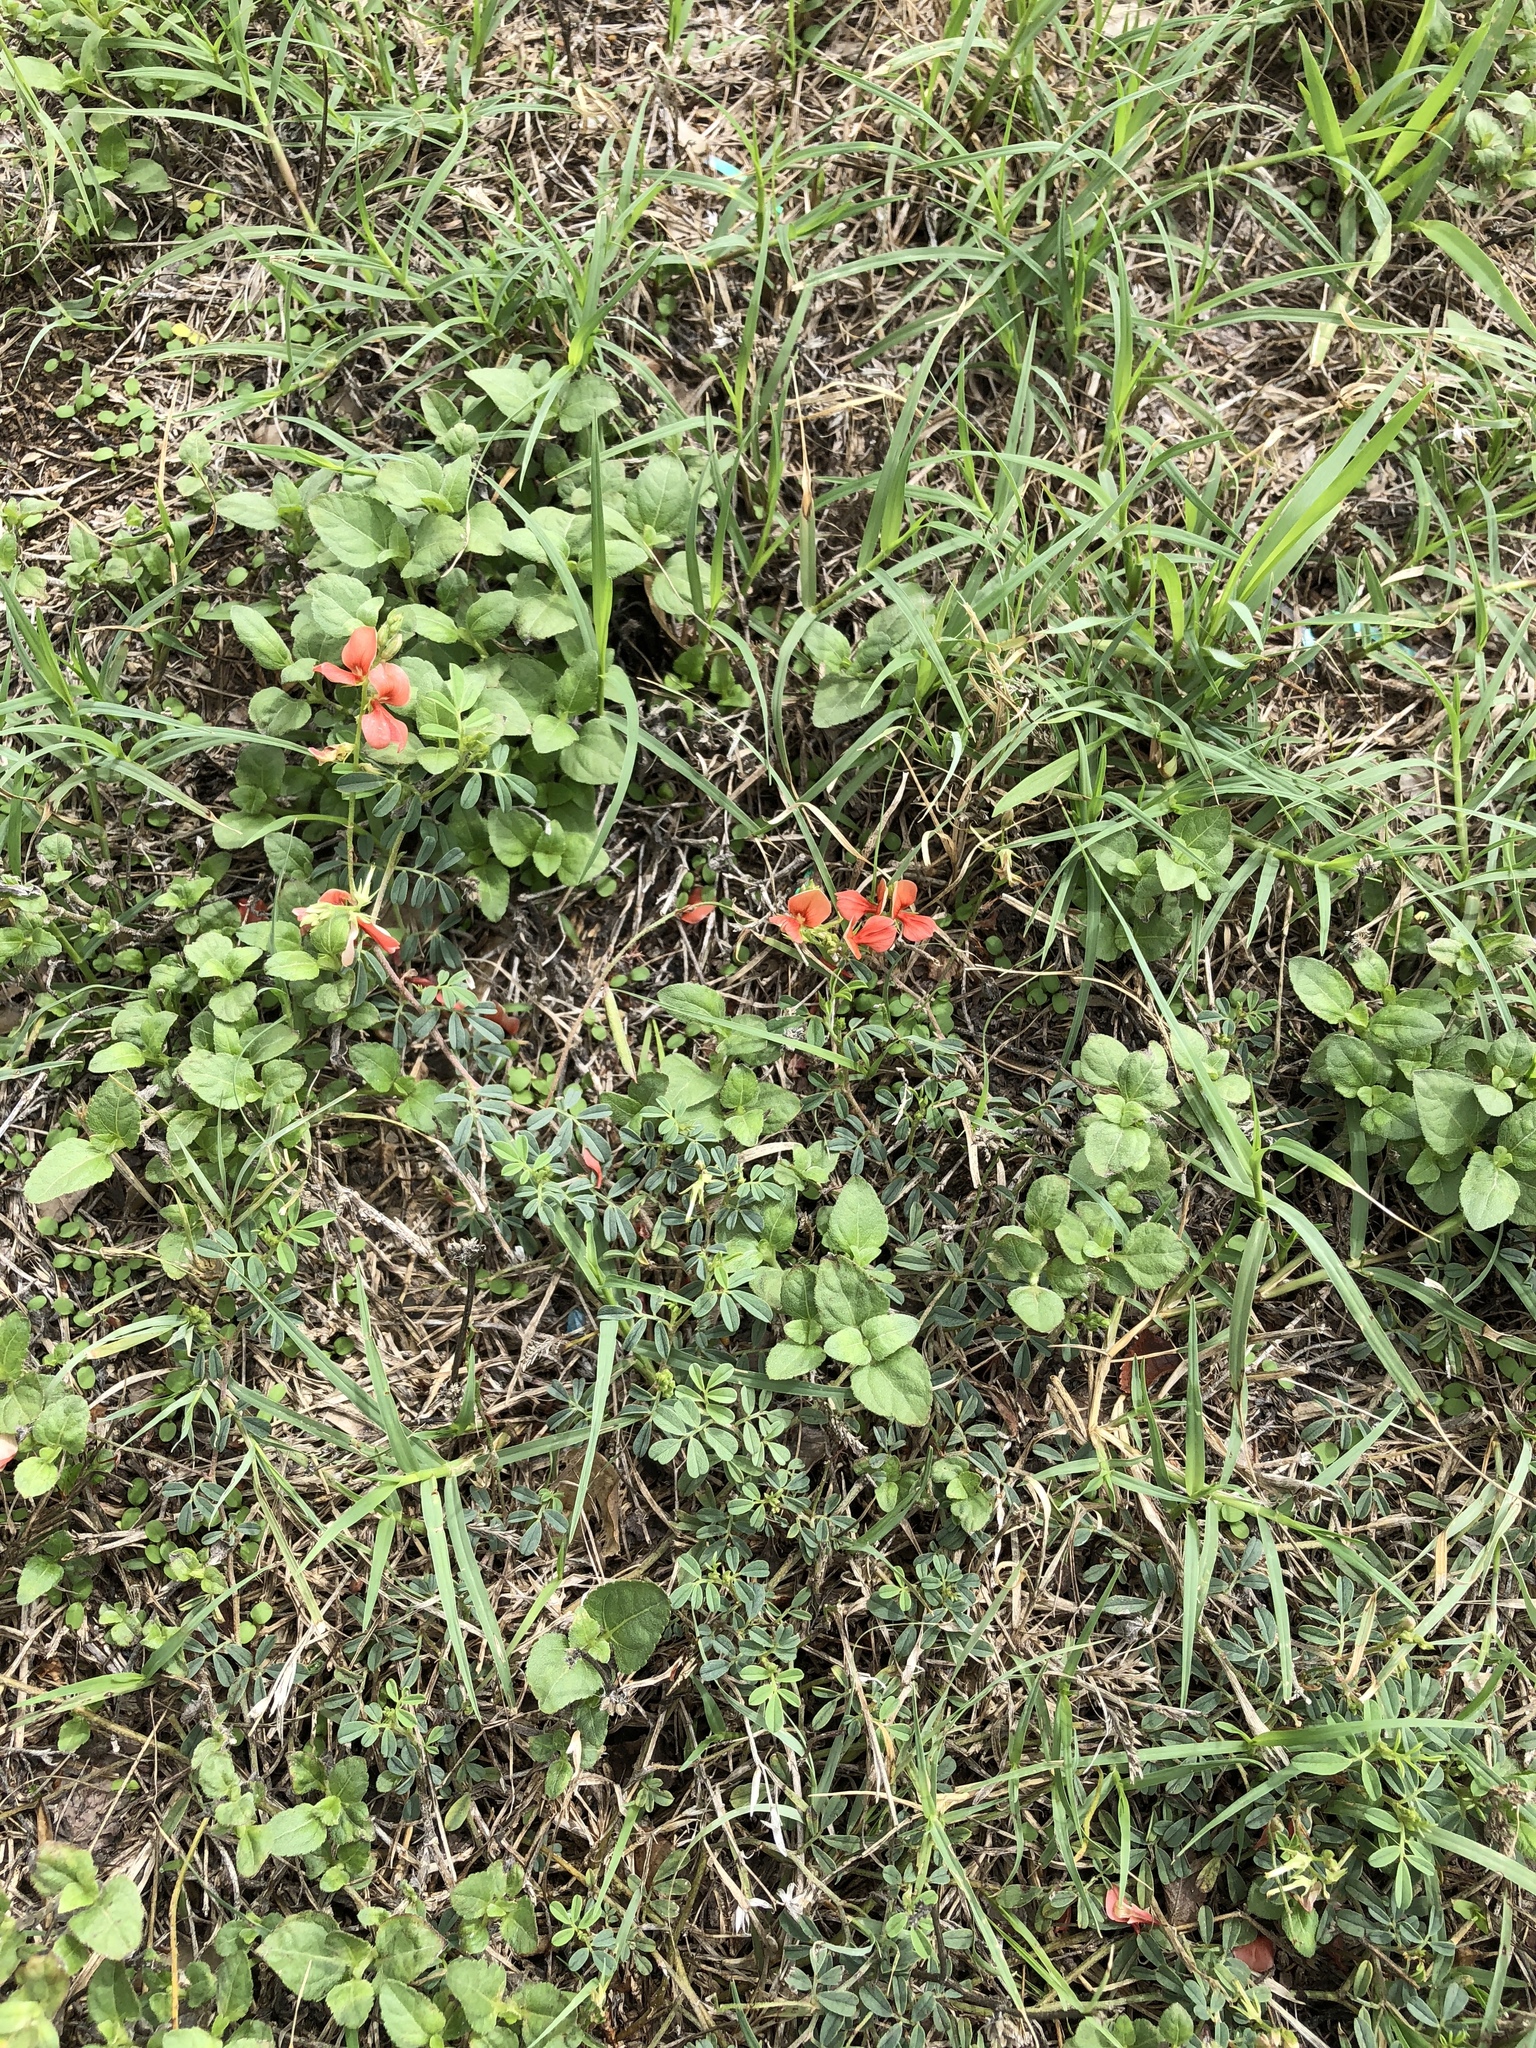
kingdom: Plantae
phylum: Tracheophyta
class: Magnoliopsida
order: Fabales
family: Fabaceae
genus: Indigofera
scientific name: Indigofera miniata
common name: Coast indigo
